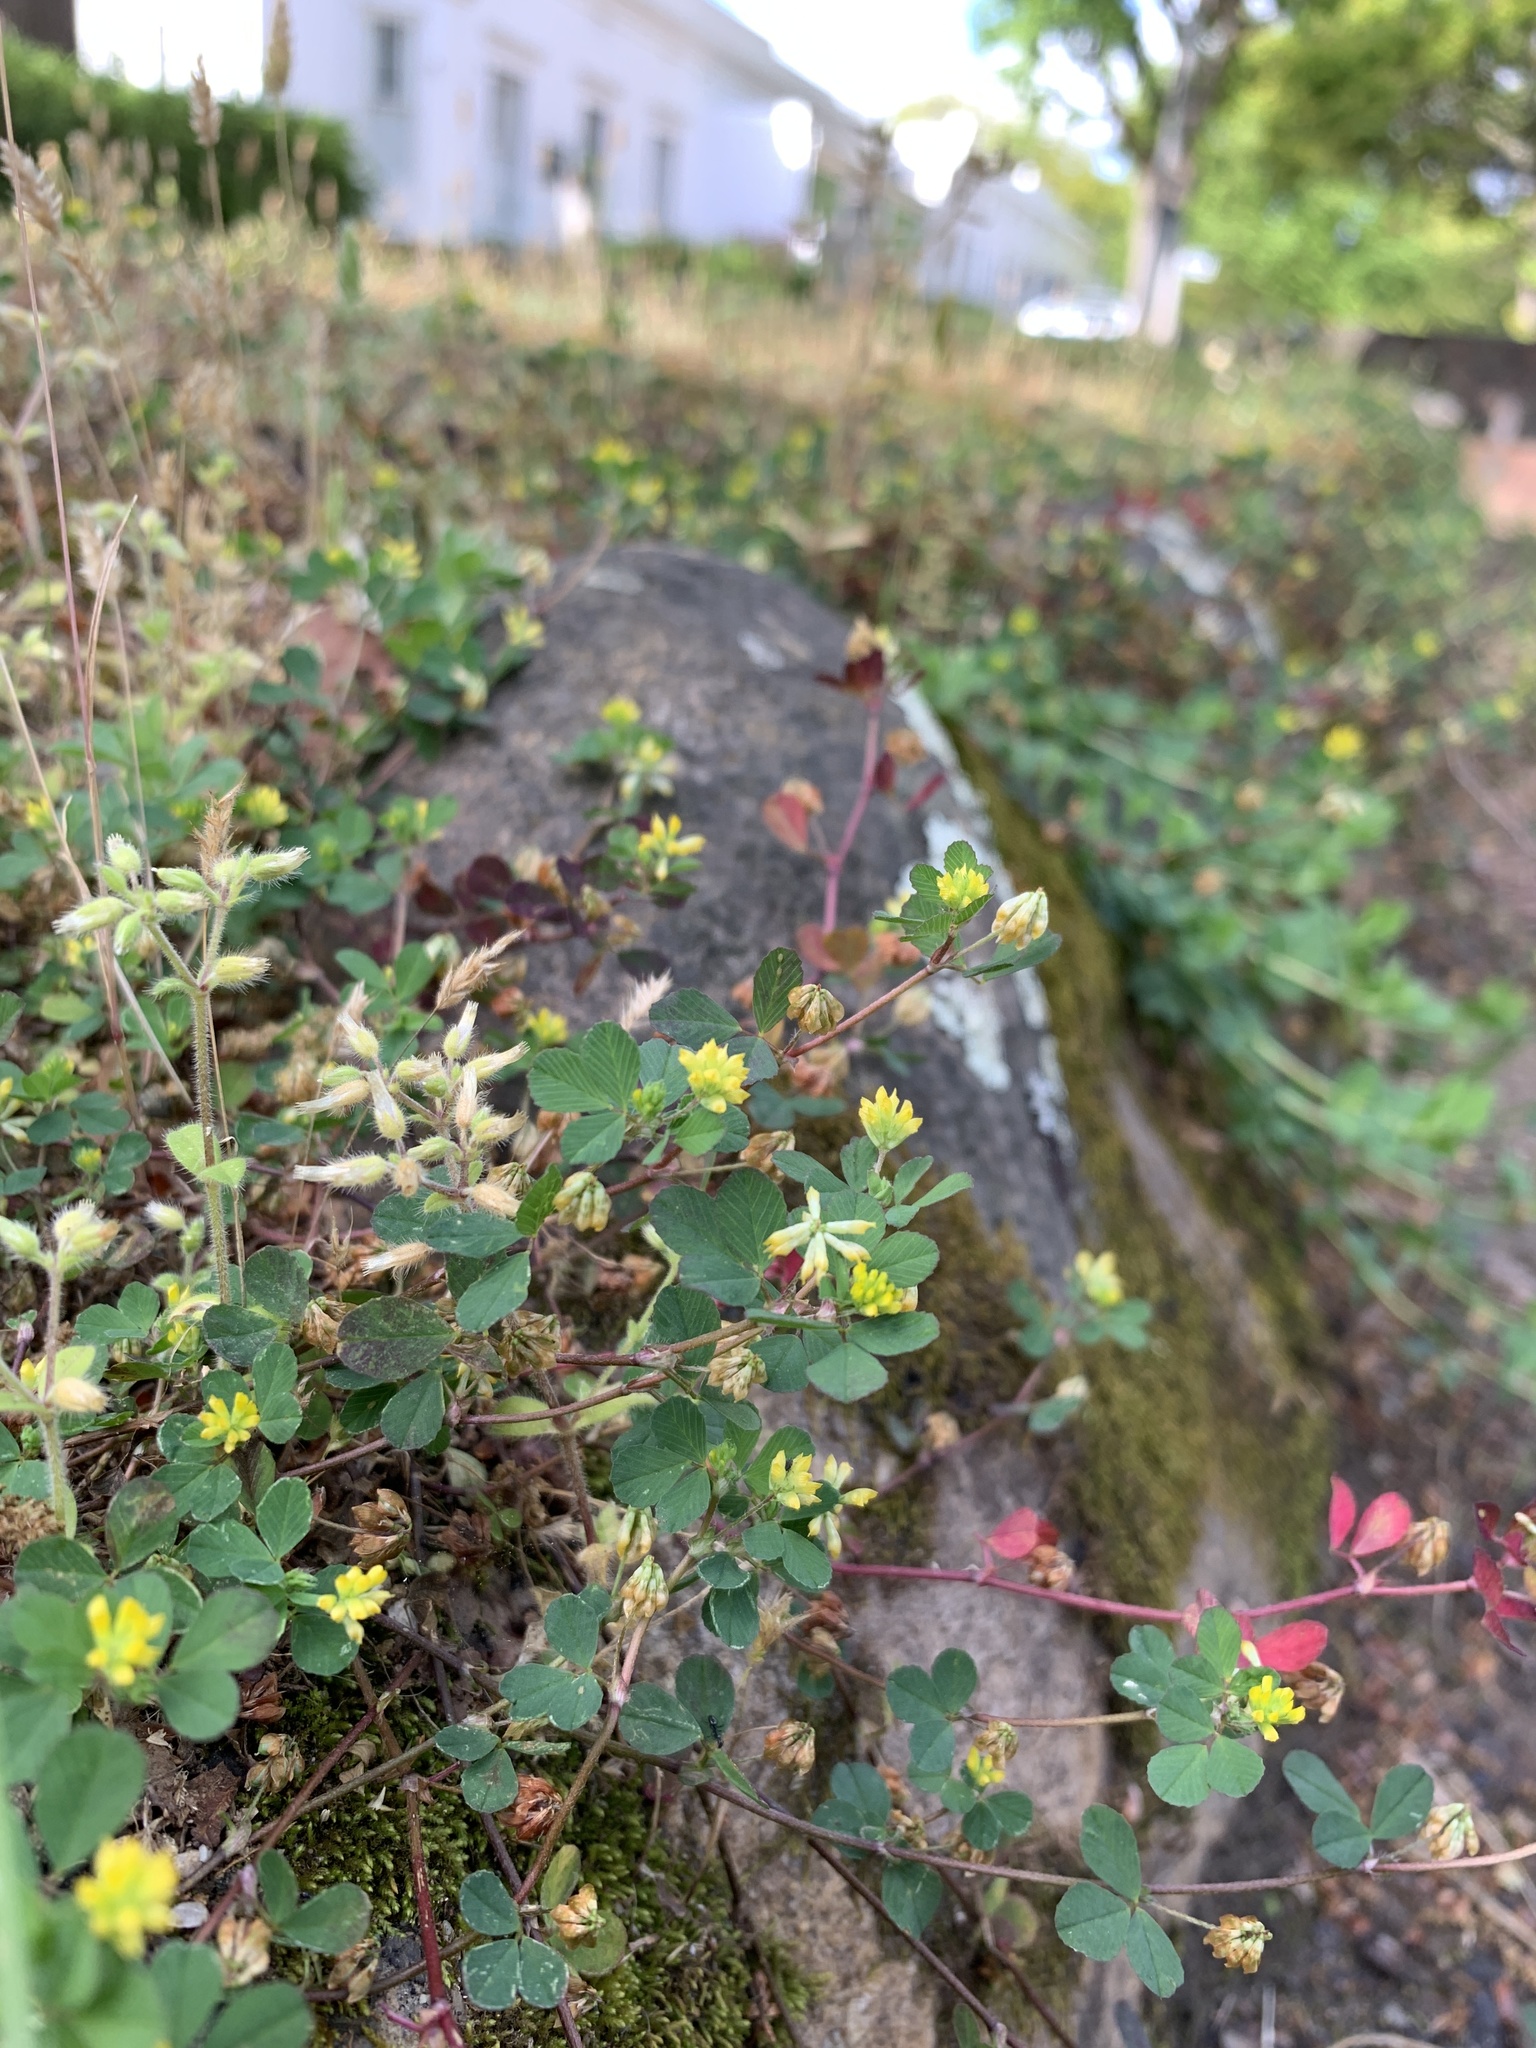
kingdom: Plantae
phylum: Tracheophyta
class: Magnoliopsida
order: Fabales
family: Fabaceae
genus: Trifolium
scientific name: Trifolium dubium
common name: Suckling clover
